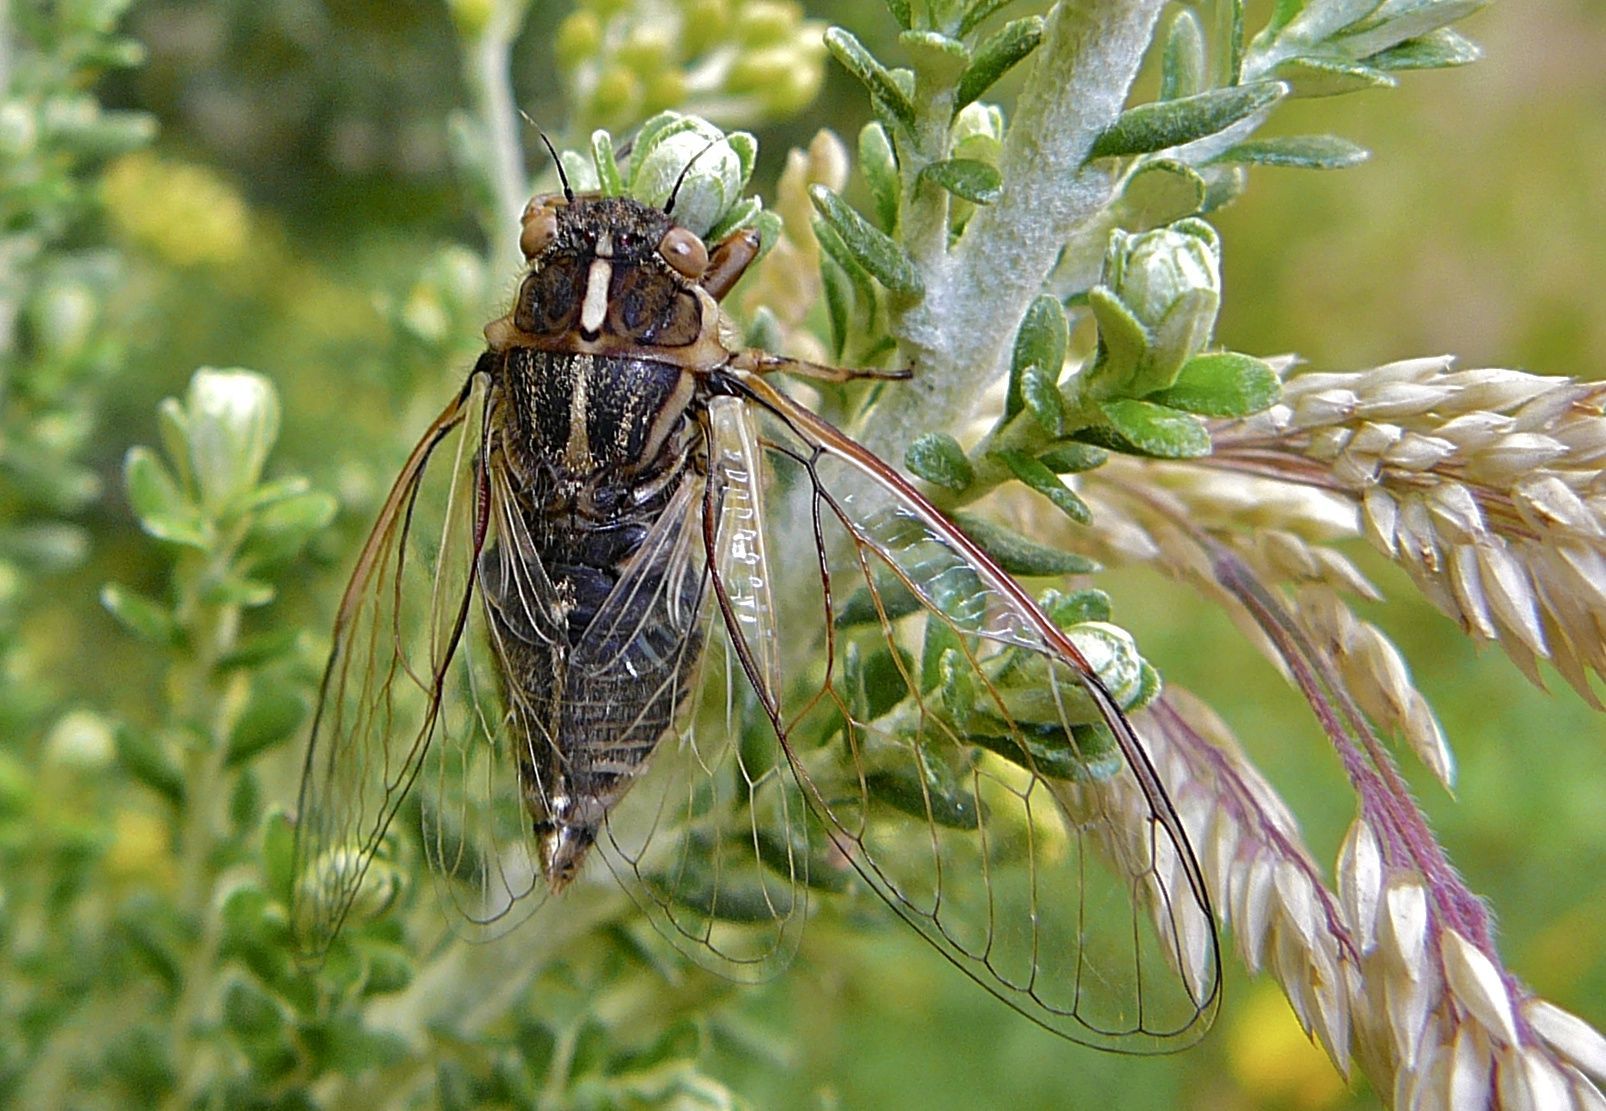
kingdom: Animalia
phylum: Arthropoda
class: Insecta
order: Hemiptera
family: Cicadidae
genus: Kikihia
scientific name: Kikihia angusta
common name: Tussock cicada
